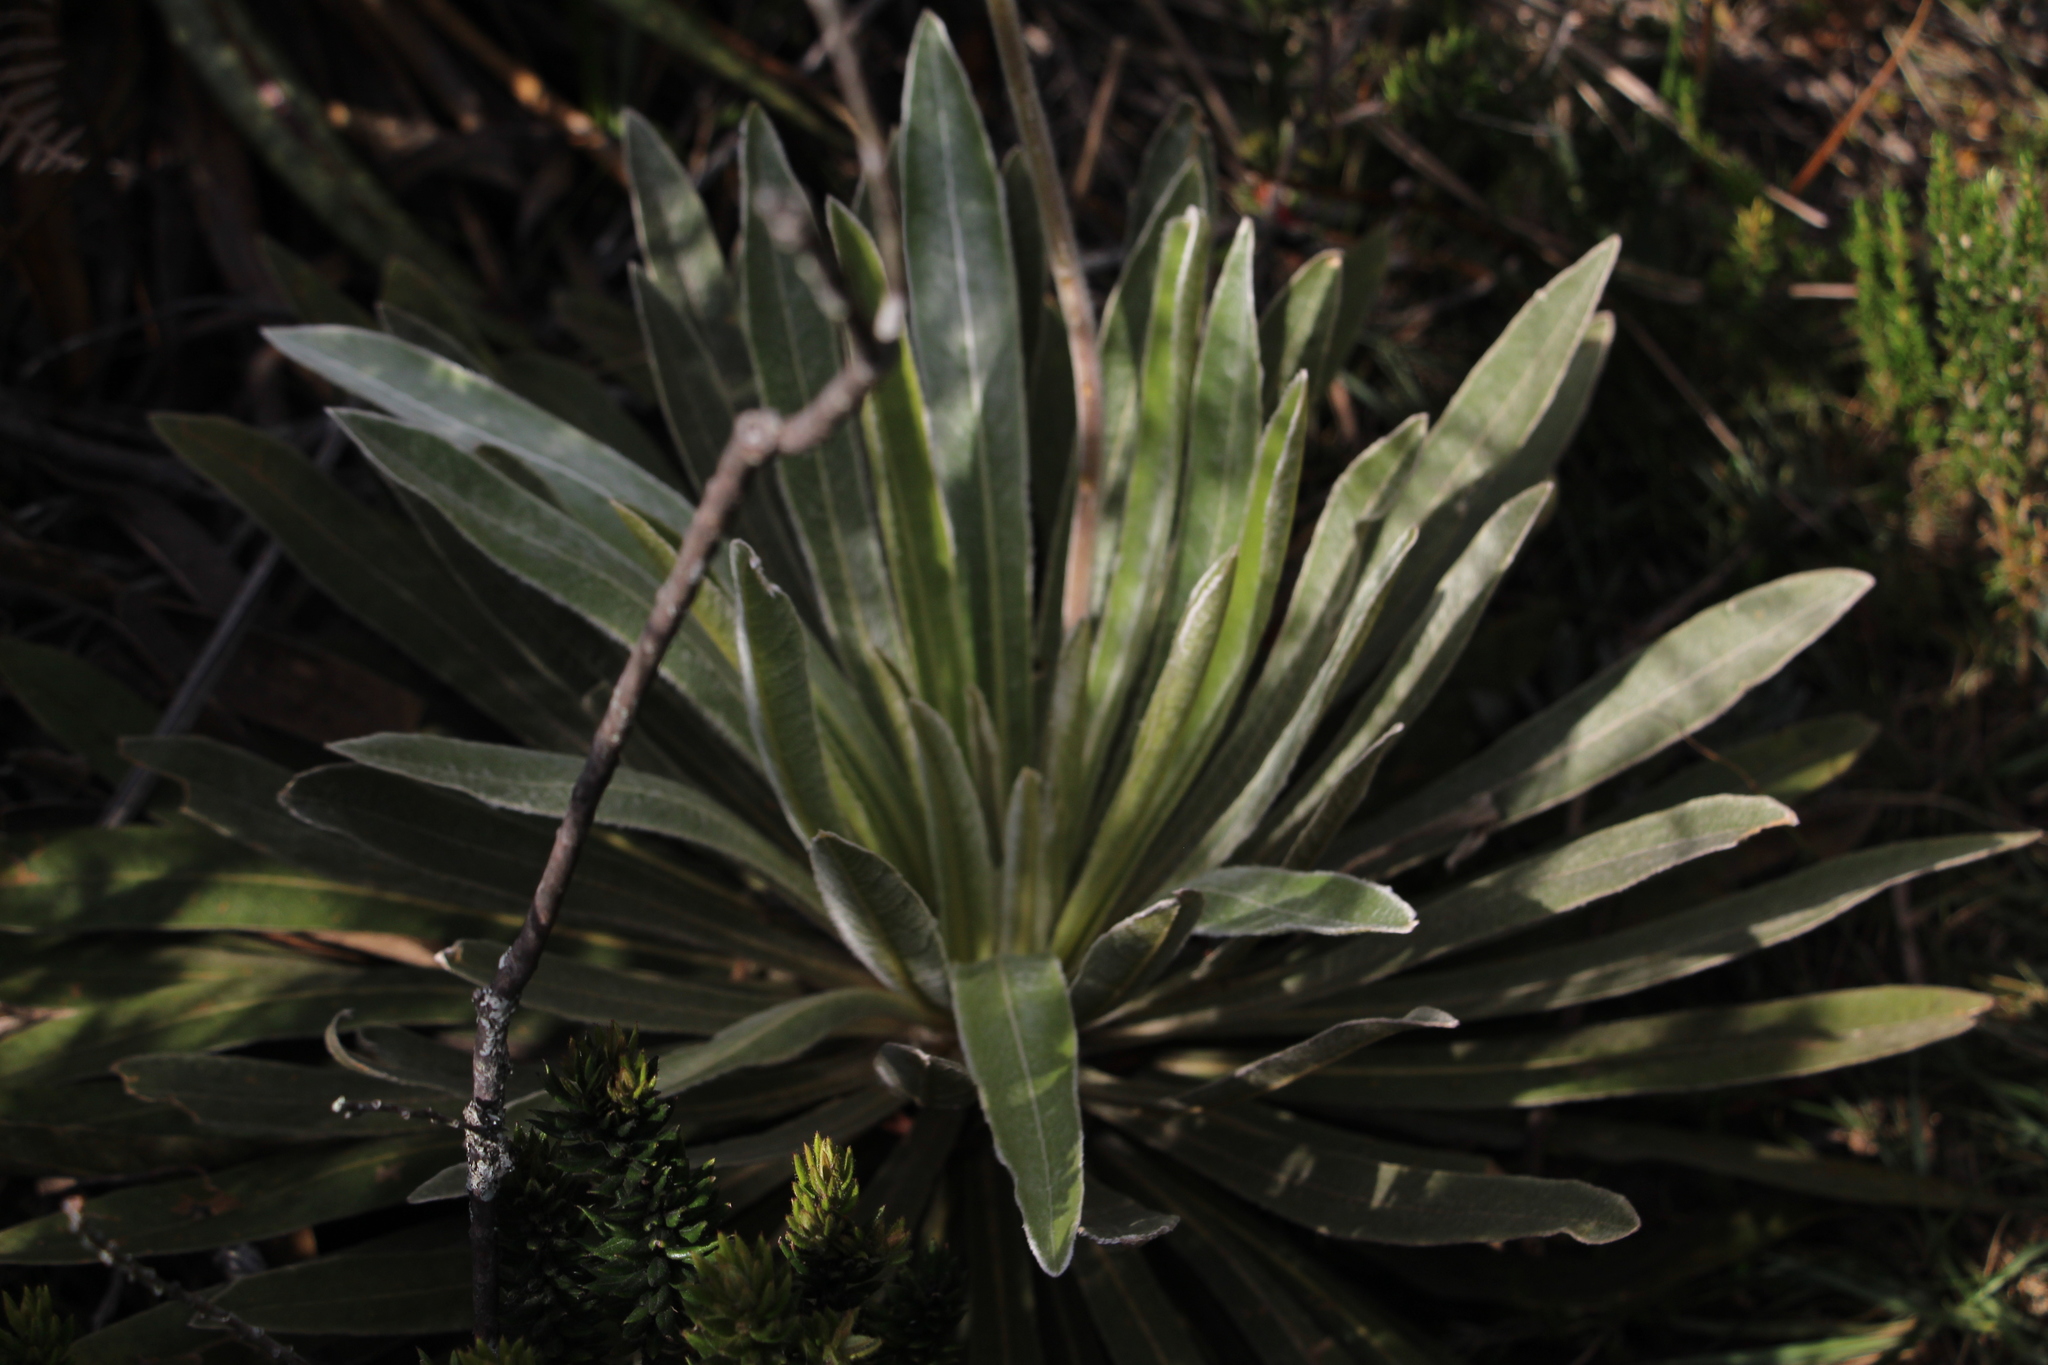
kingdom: Plantae
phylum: Tracheophyta
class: Magnoliopsida
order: Asterales
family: Asteraceae
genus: Espeletia
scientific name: Espeletia corymbosa
